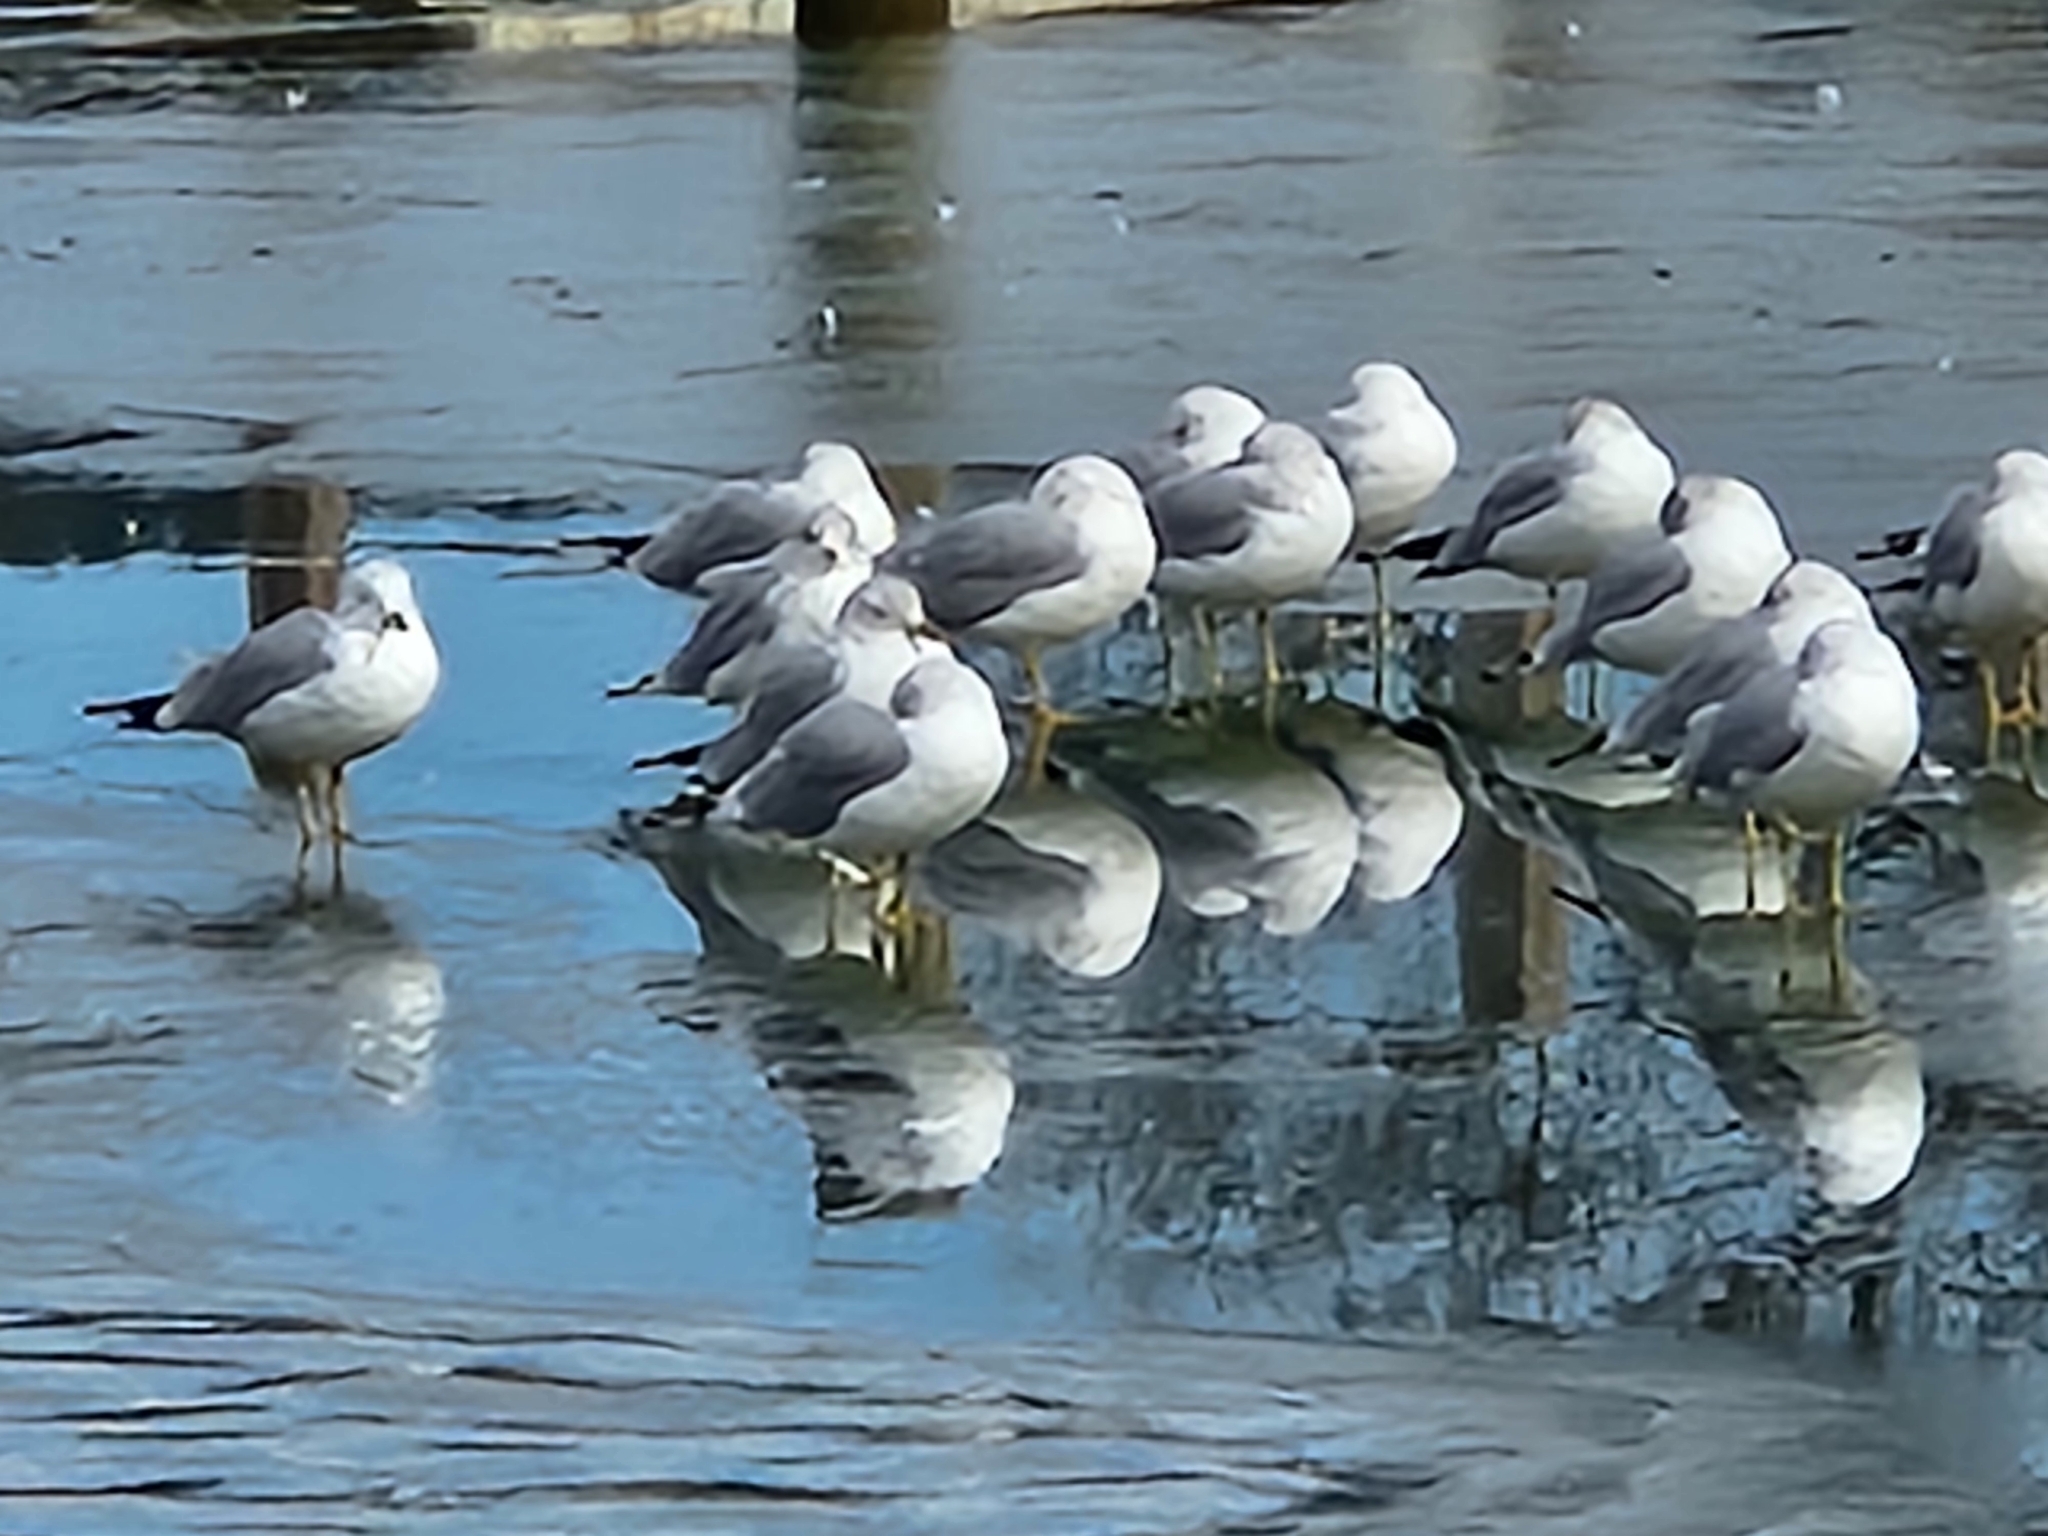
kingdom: Animalia
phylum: Chordata
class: Aves
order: Charadriiformes
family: Laridae
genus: Larus
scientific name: Larus delawarensis
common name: Ring-billed gull
